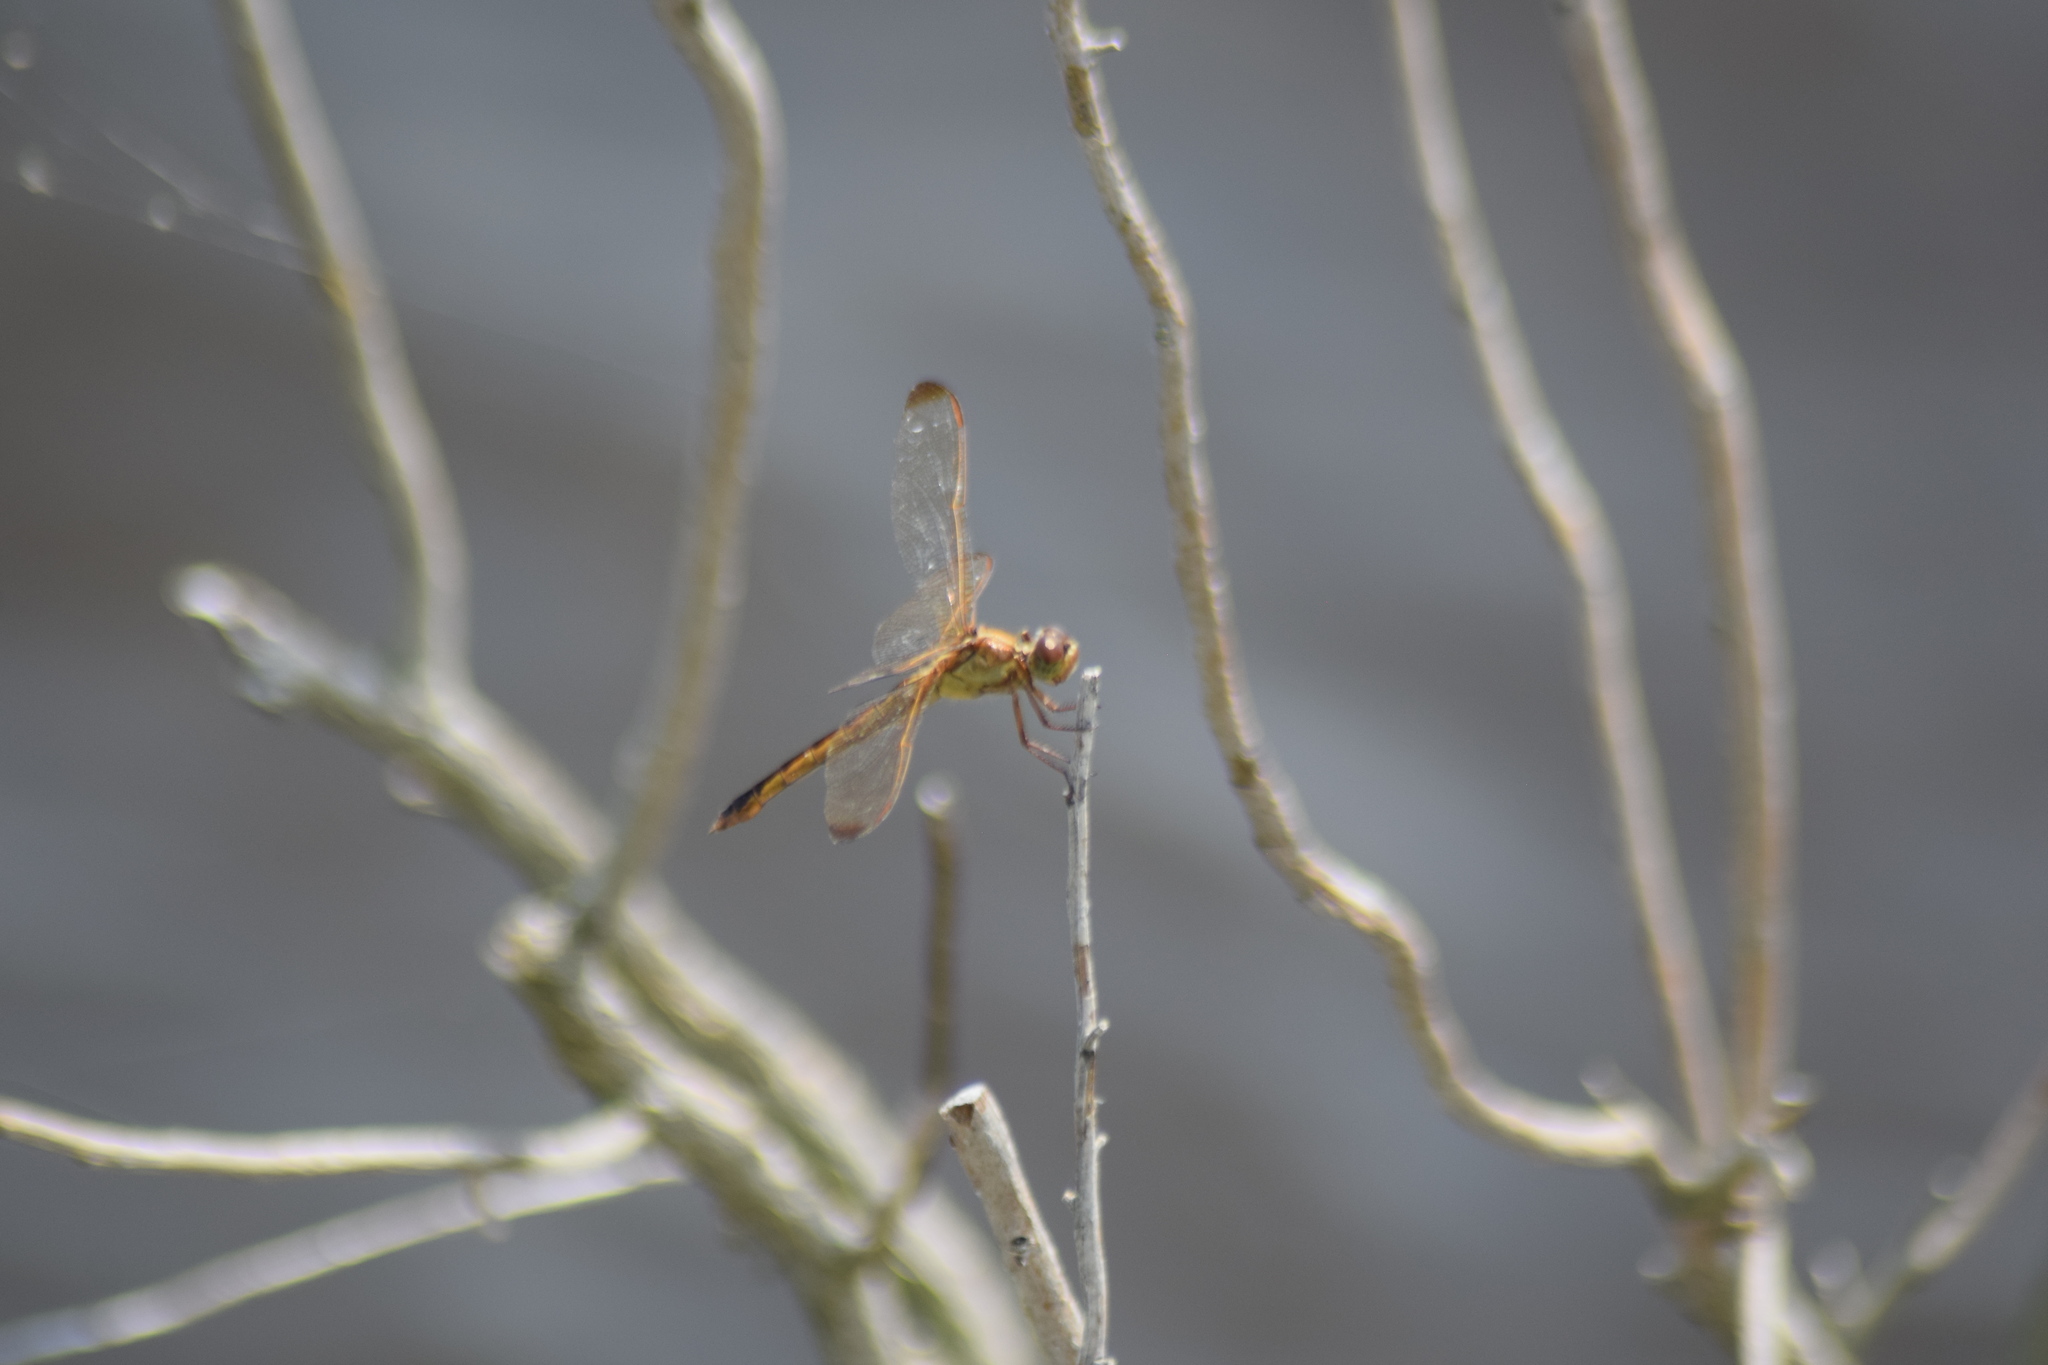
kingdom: Animalia
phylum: Arthropoda
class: Insecta
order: Odonata
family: Libellulidae
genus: Libellula
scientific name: Libellula needhami
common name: Needham's skimmer
